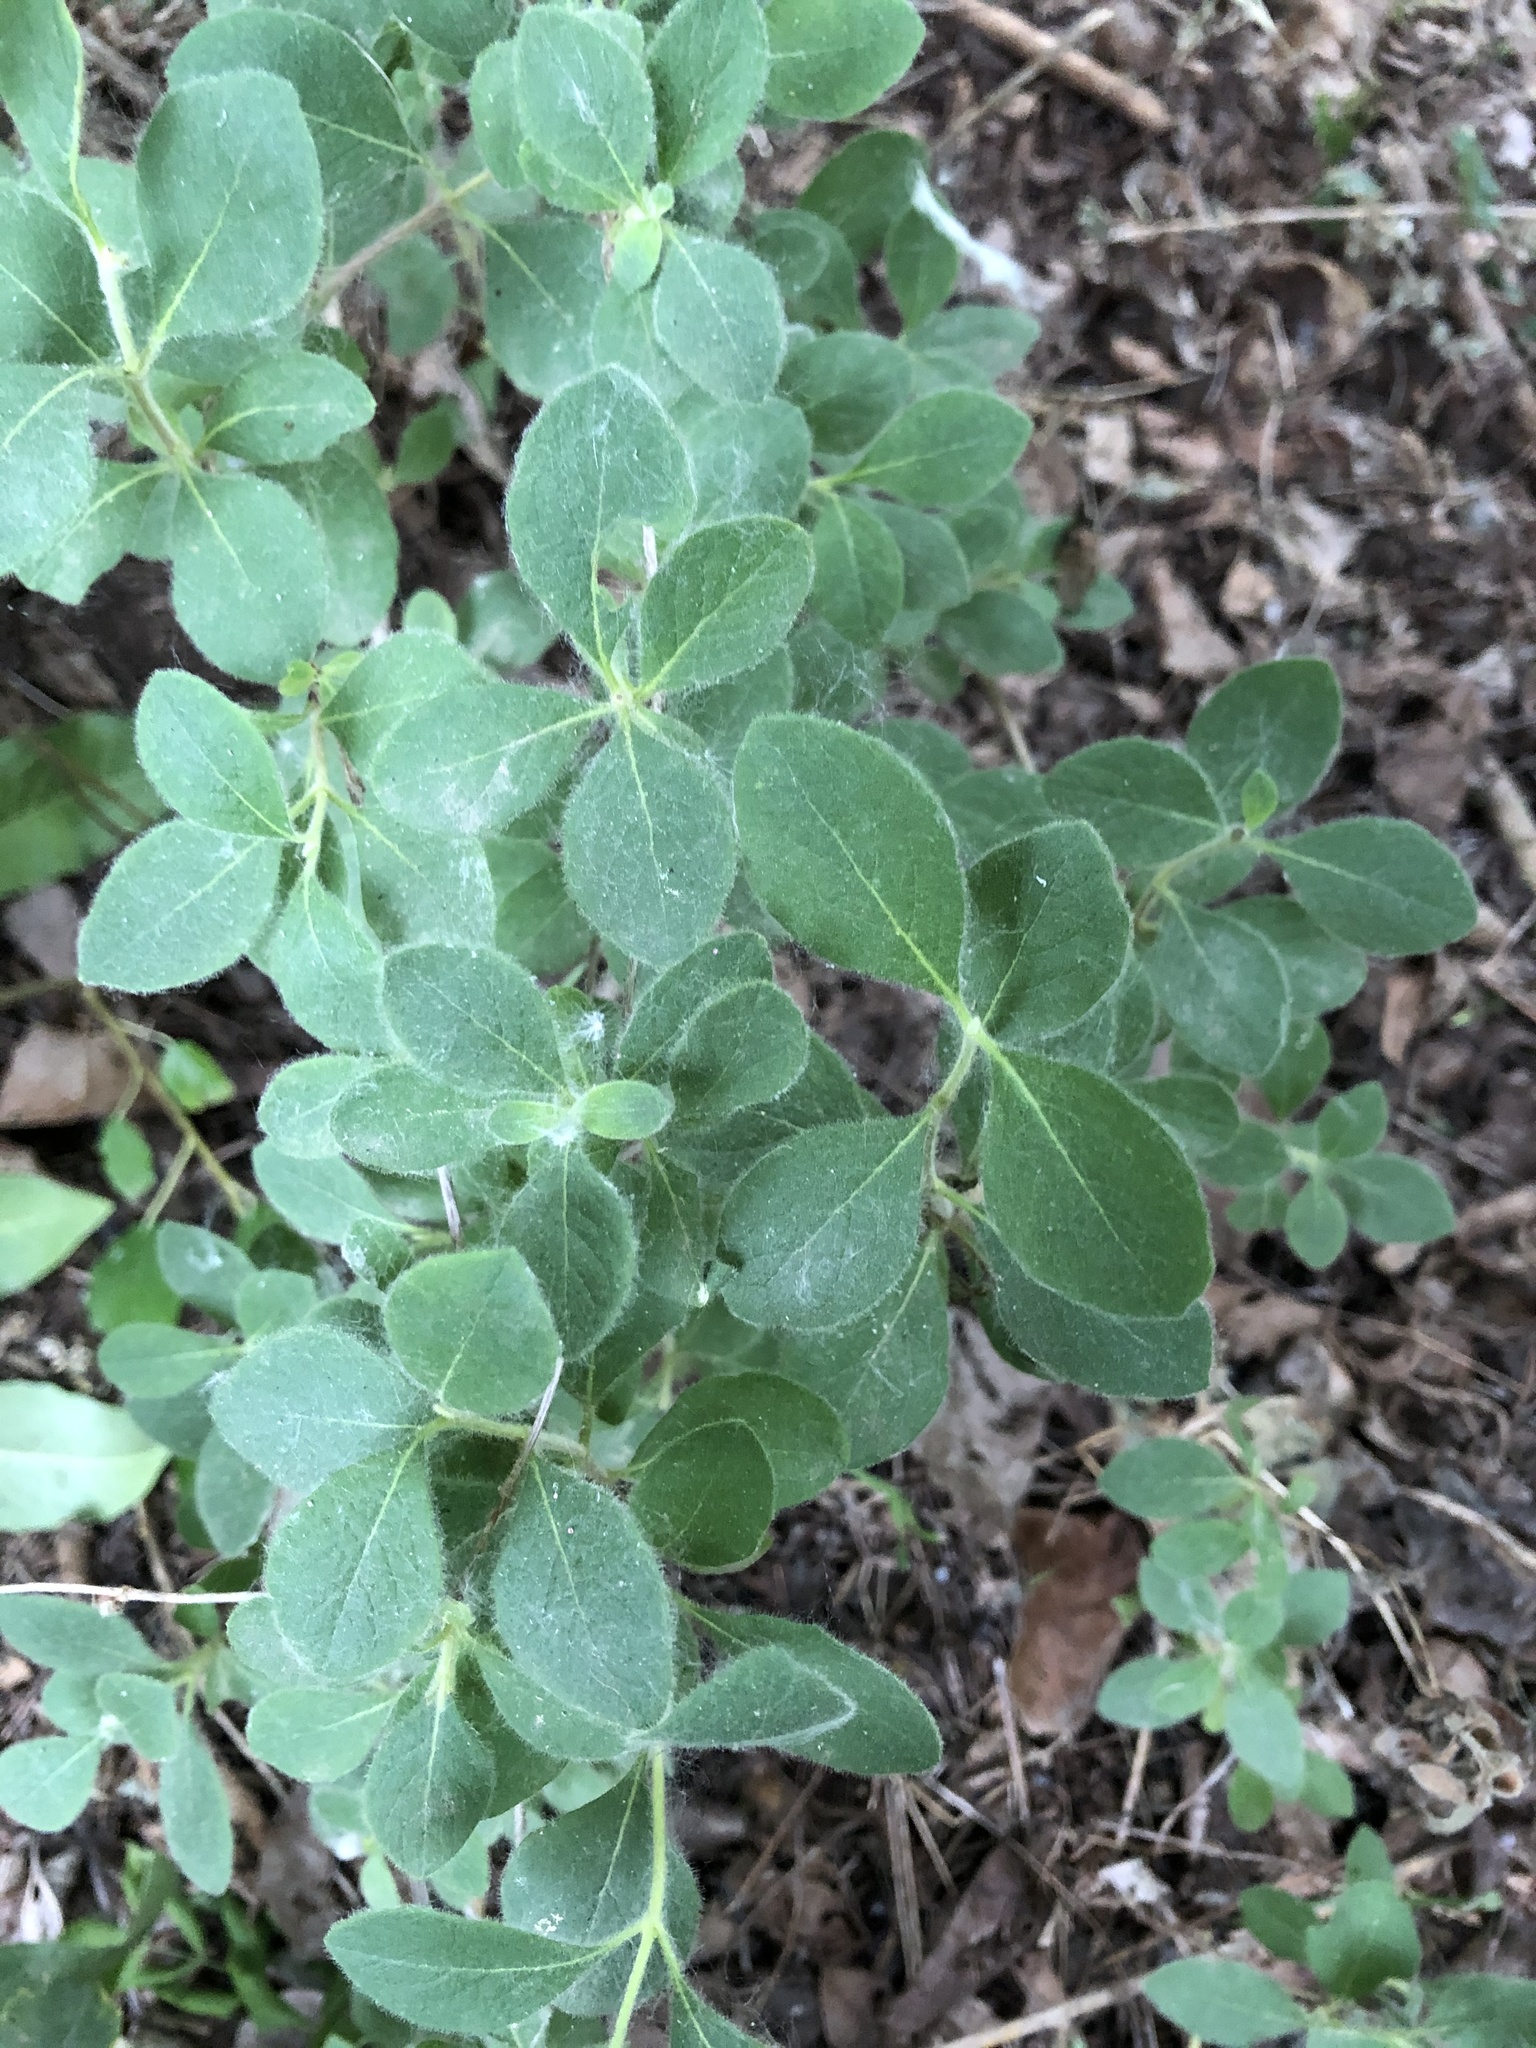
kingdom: Plantae
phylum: Tracheophyta
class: Magnoliopsida
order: Dipsacales
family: Caprifoliaceae
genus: Lonicera
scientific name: Lonicera etrusca
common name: Etruscan honeysuckle
